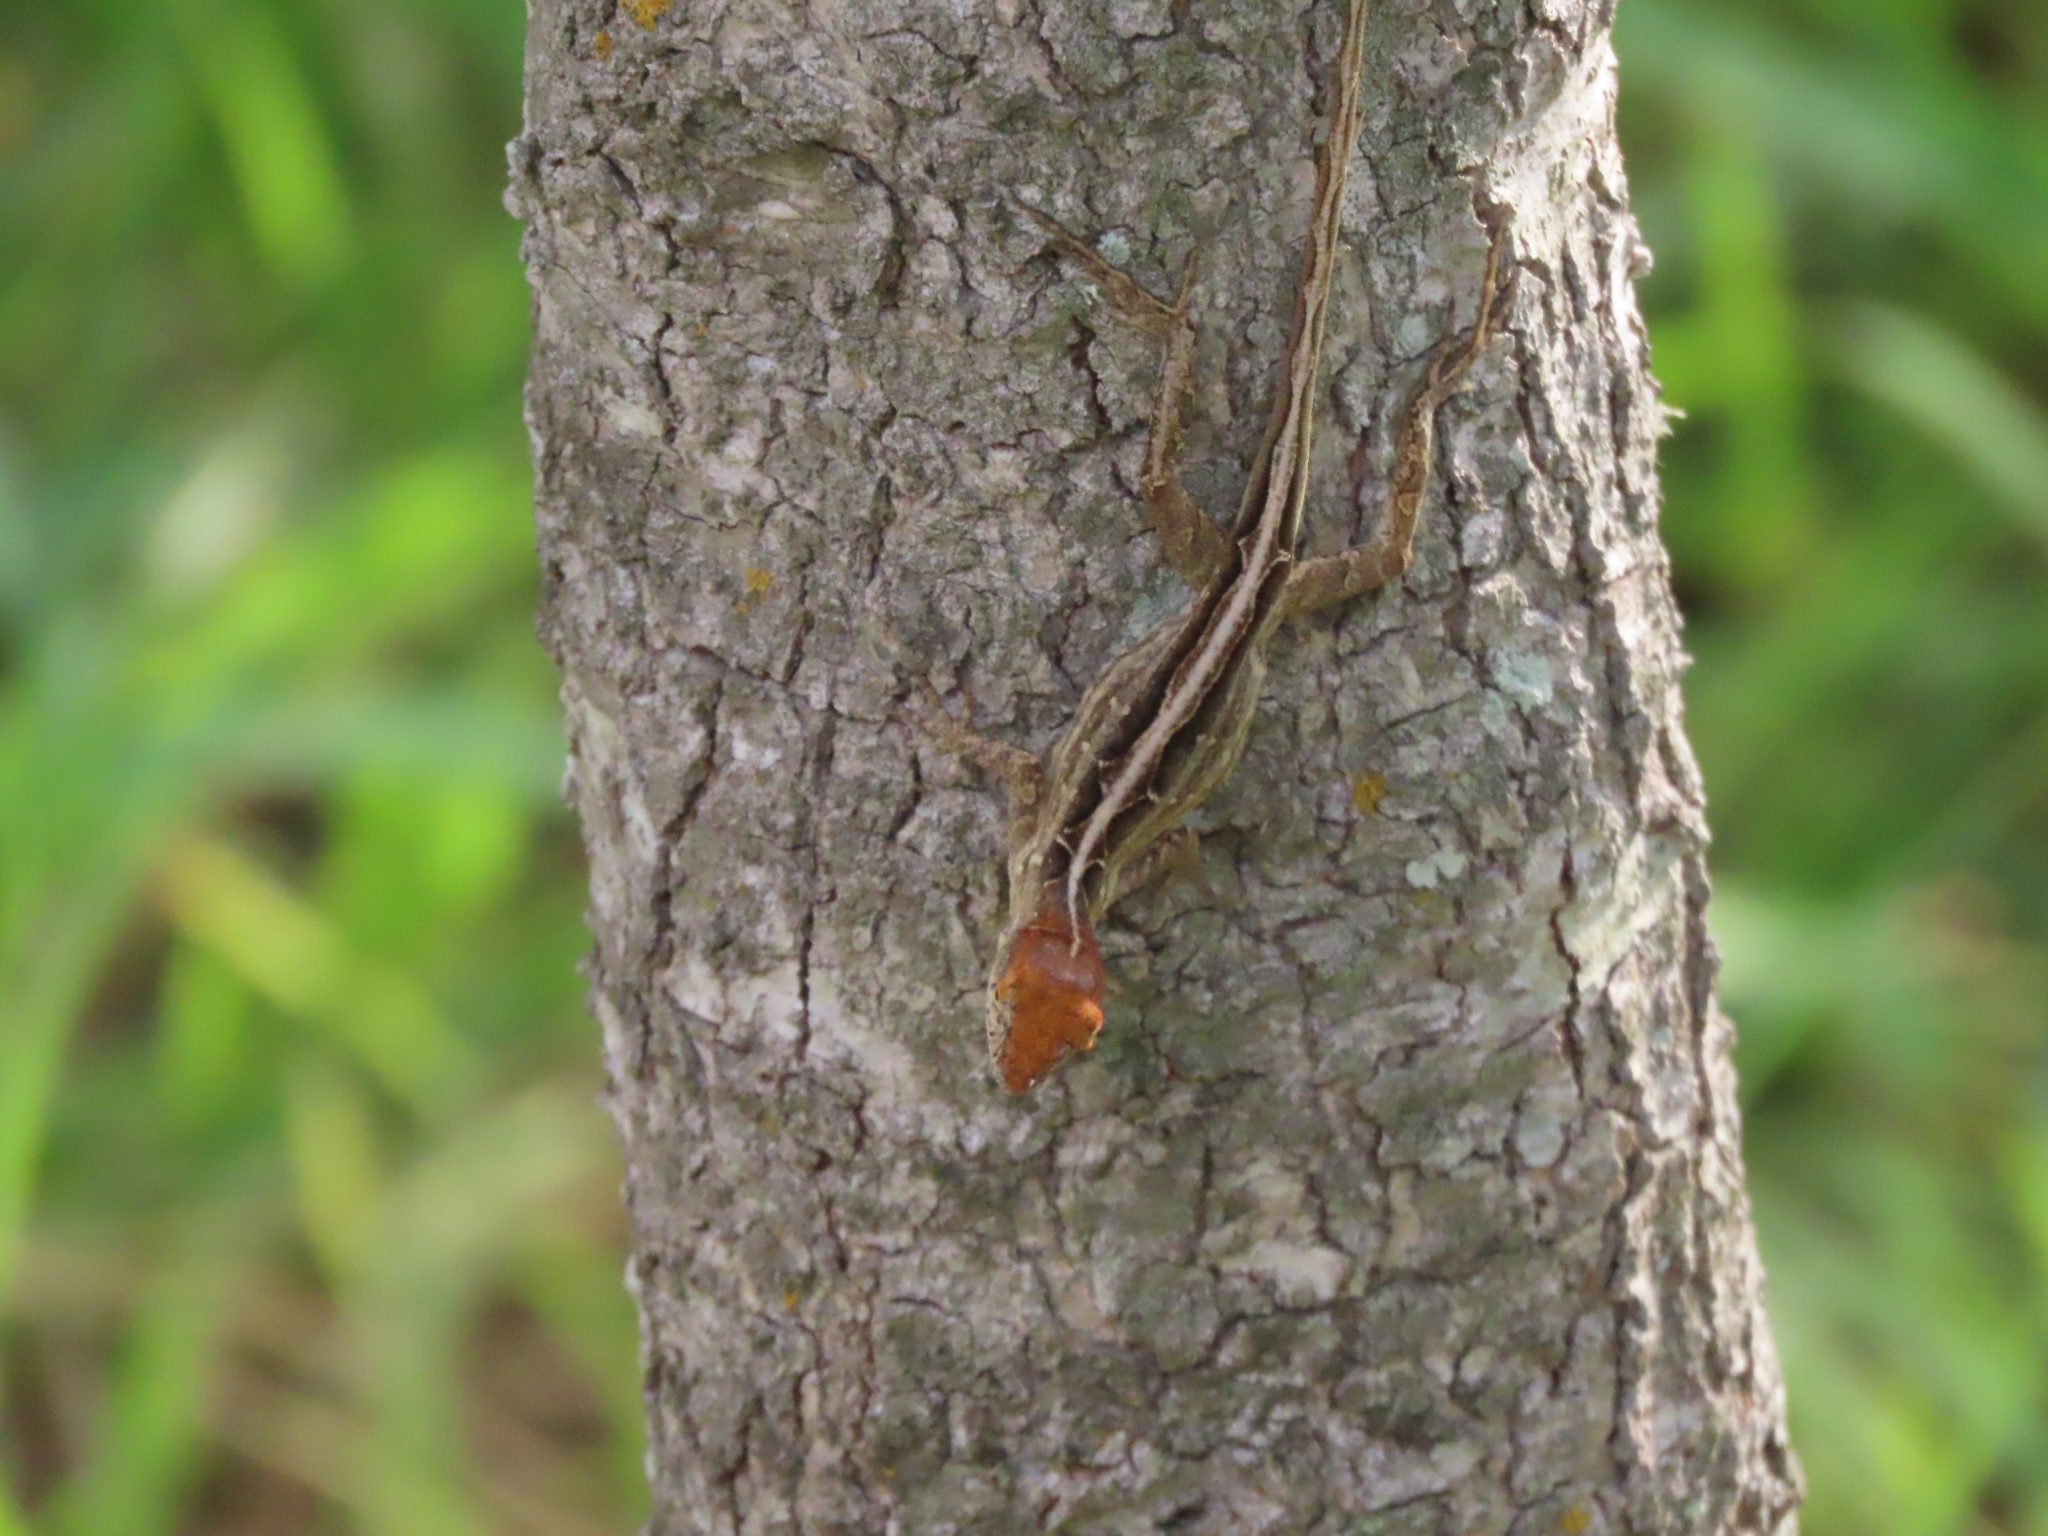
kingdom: Animalia
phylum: Chordata
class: Squamata
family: Dactyloidae
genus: Anolis
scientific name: Anolis sagrei
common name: Brown anole
